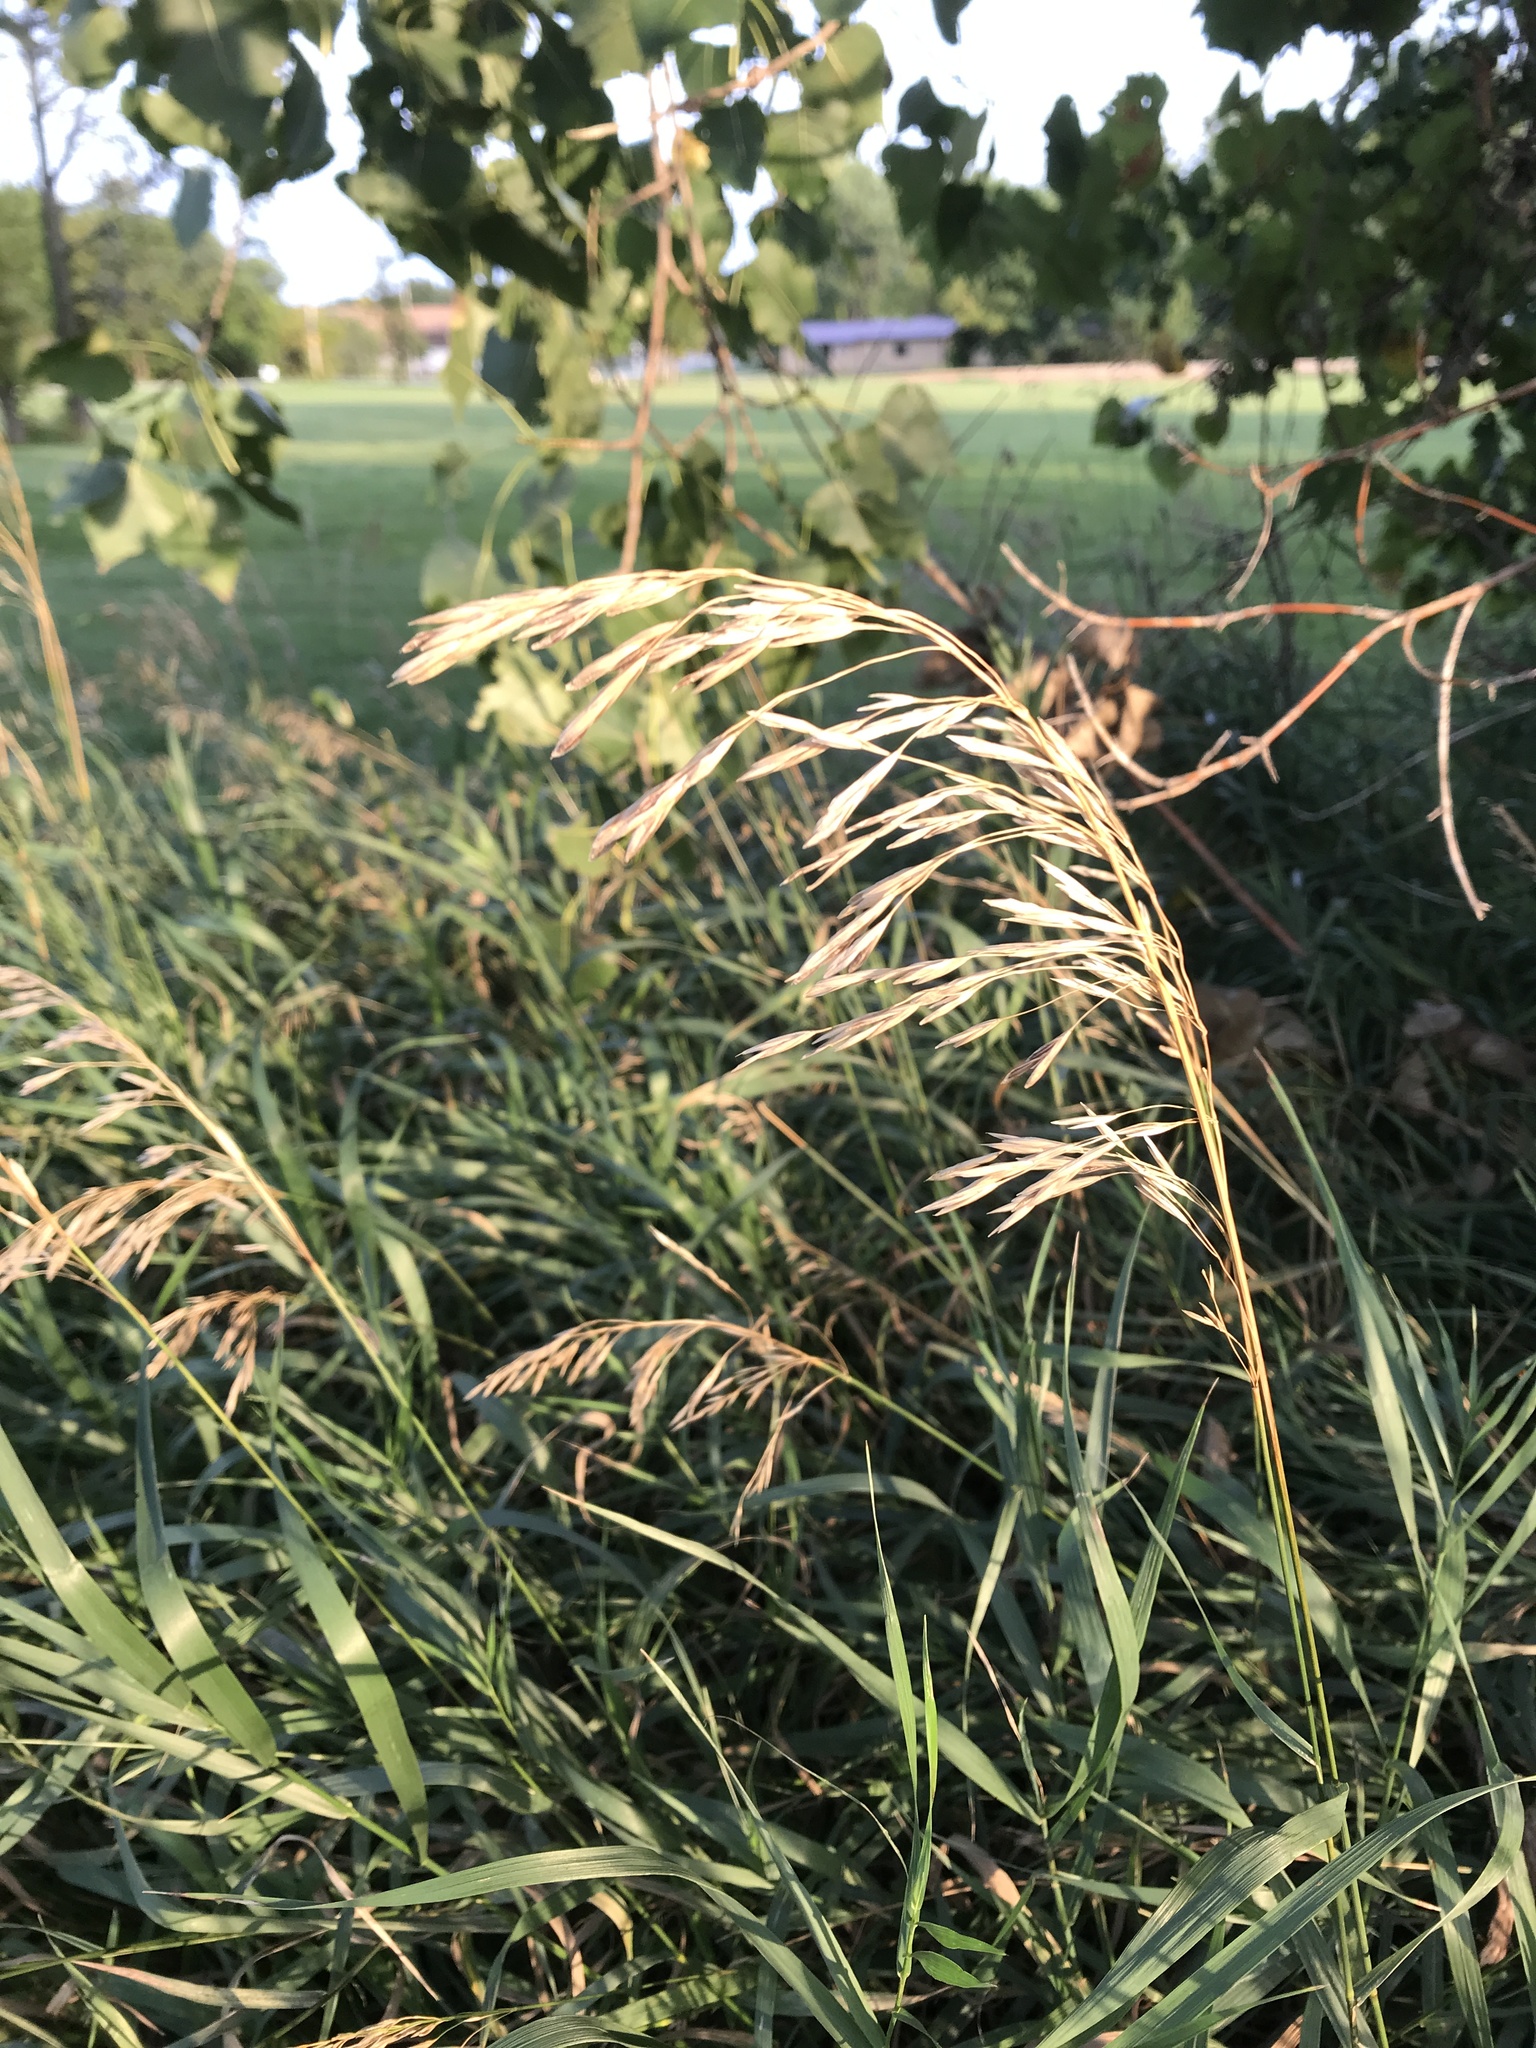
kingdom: Plantae
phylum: Tracheophyta
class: Liliopsida
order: Poales
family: Poaceae
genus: Bromus
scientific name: Bromus inermis
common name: Smooth brome
